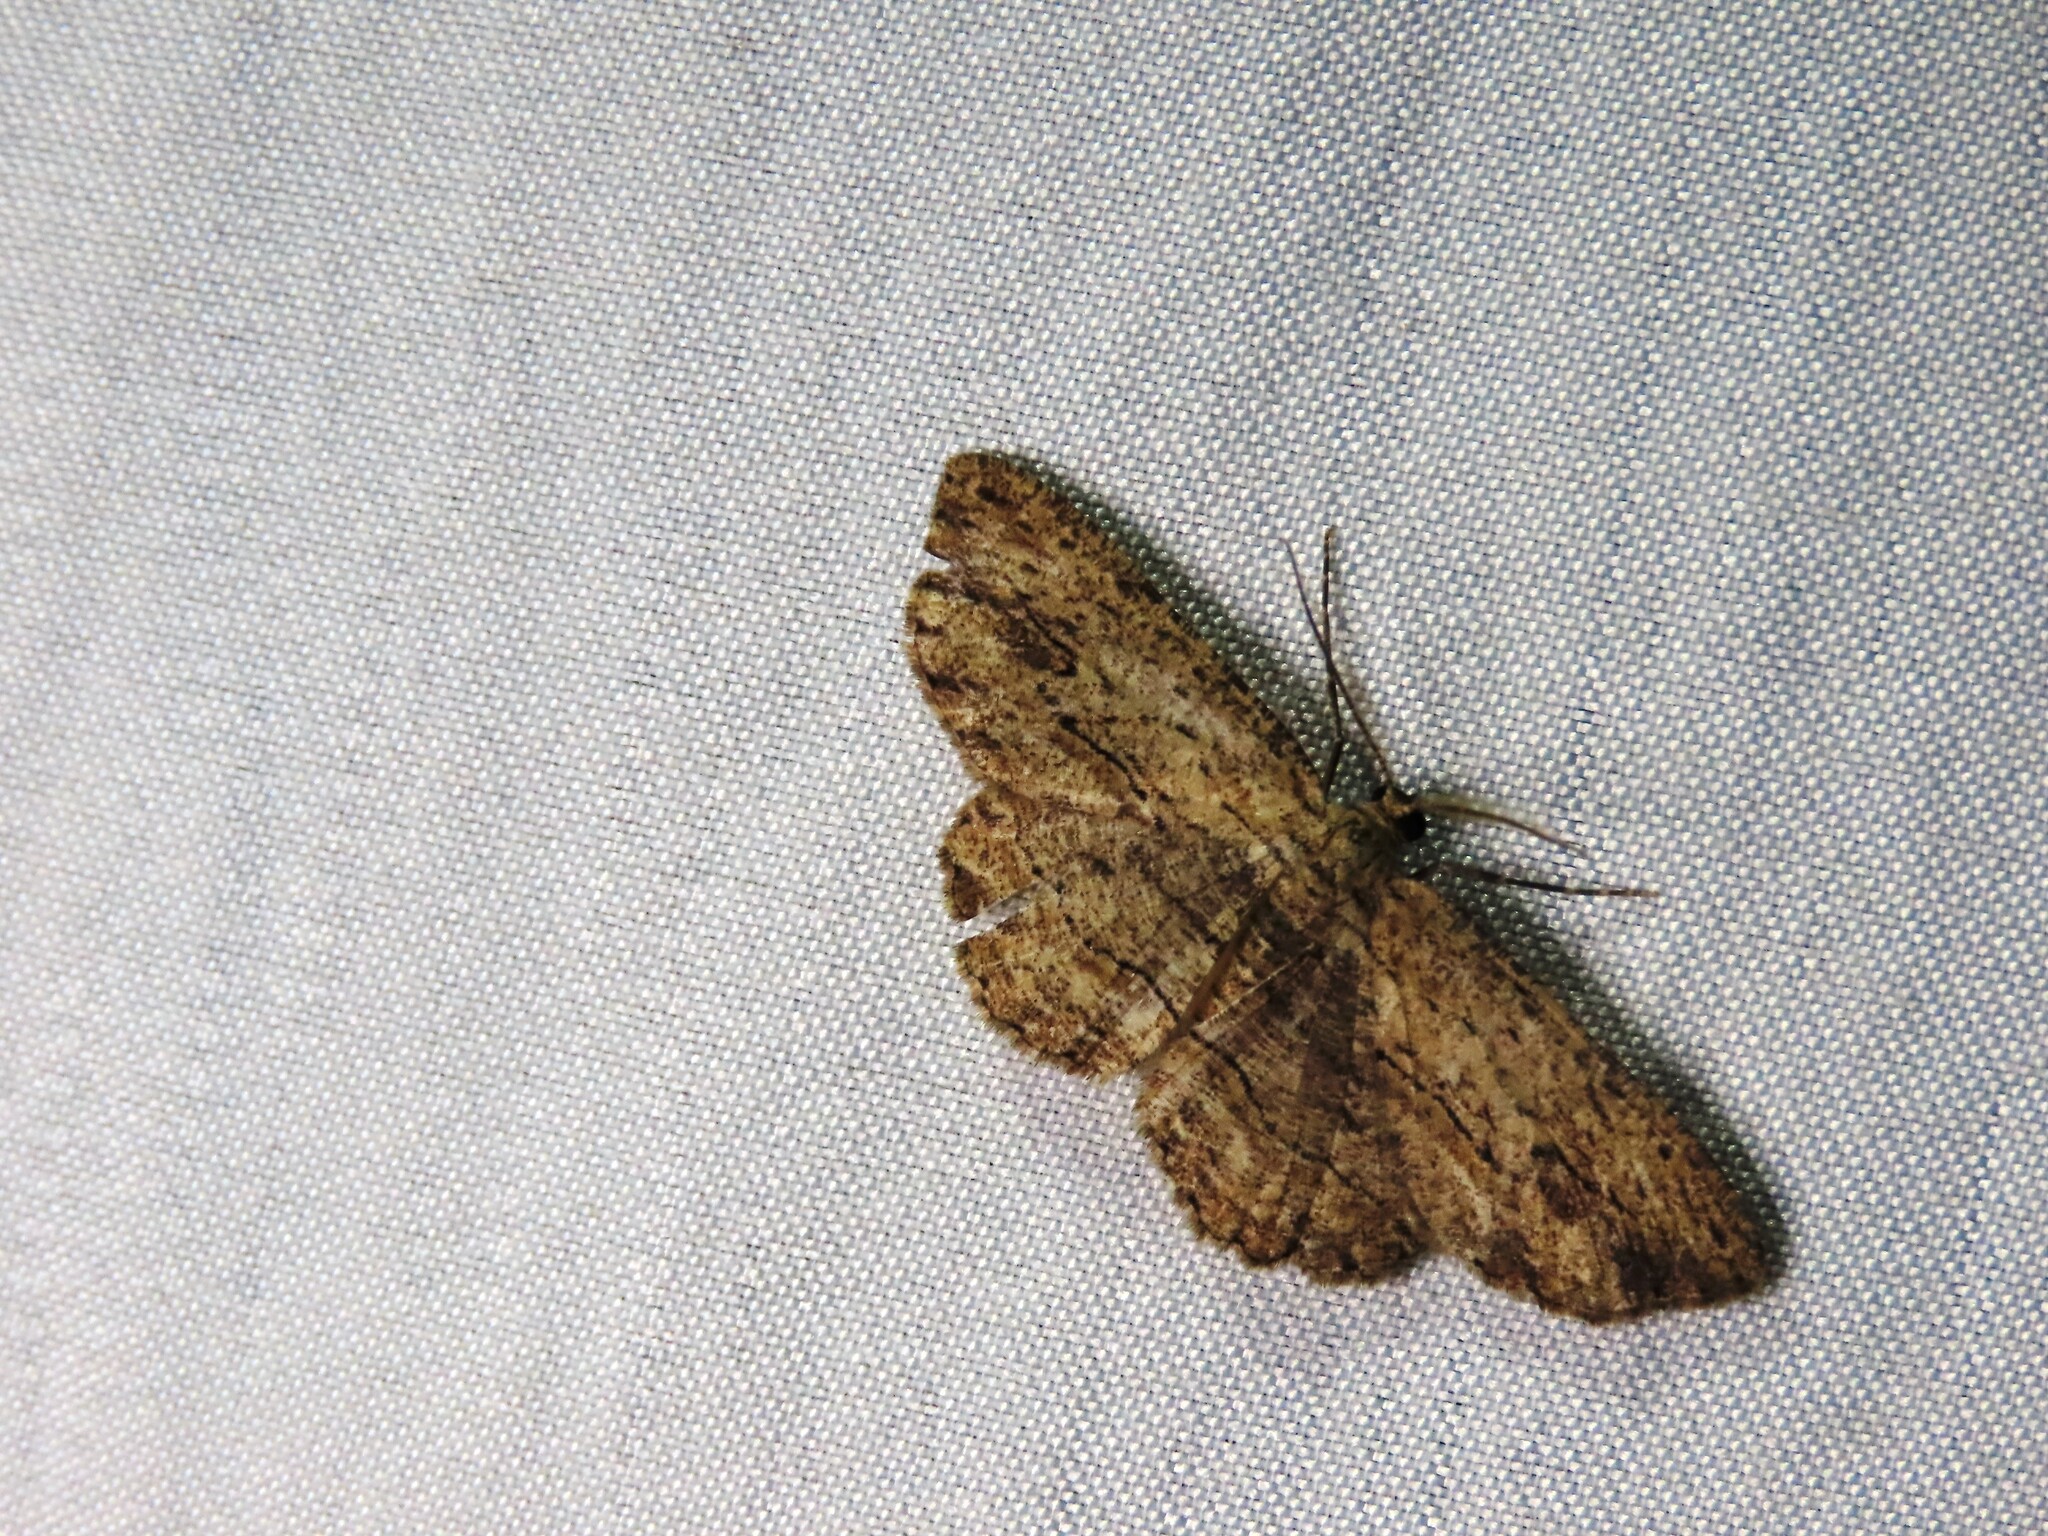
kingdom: Animalia
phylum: Arthropoda
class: Insecta
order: Lepidoptera
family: Geometridae
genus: Ectropis
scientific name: Ectropis excursaria
